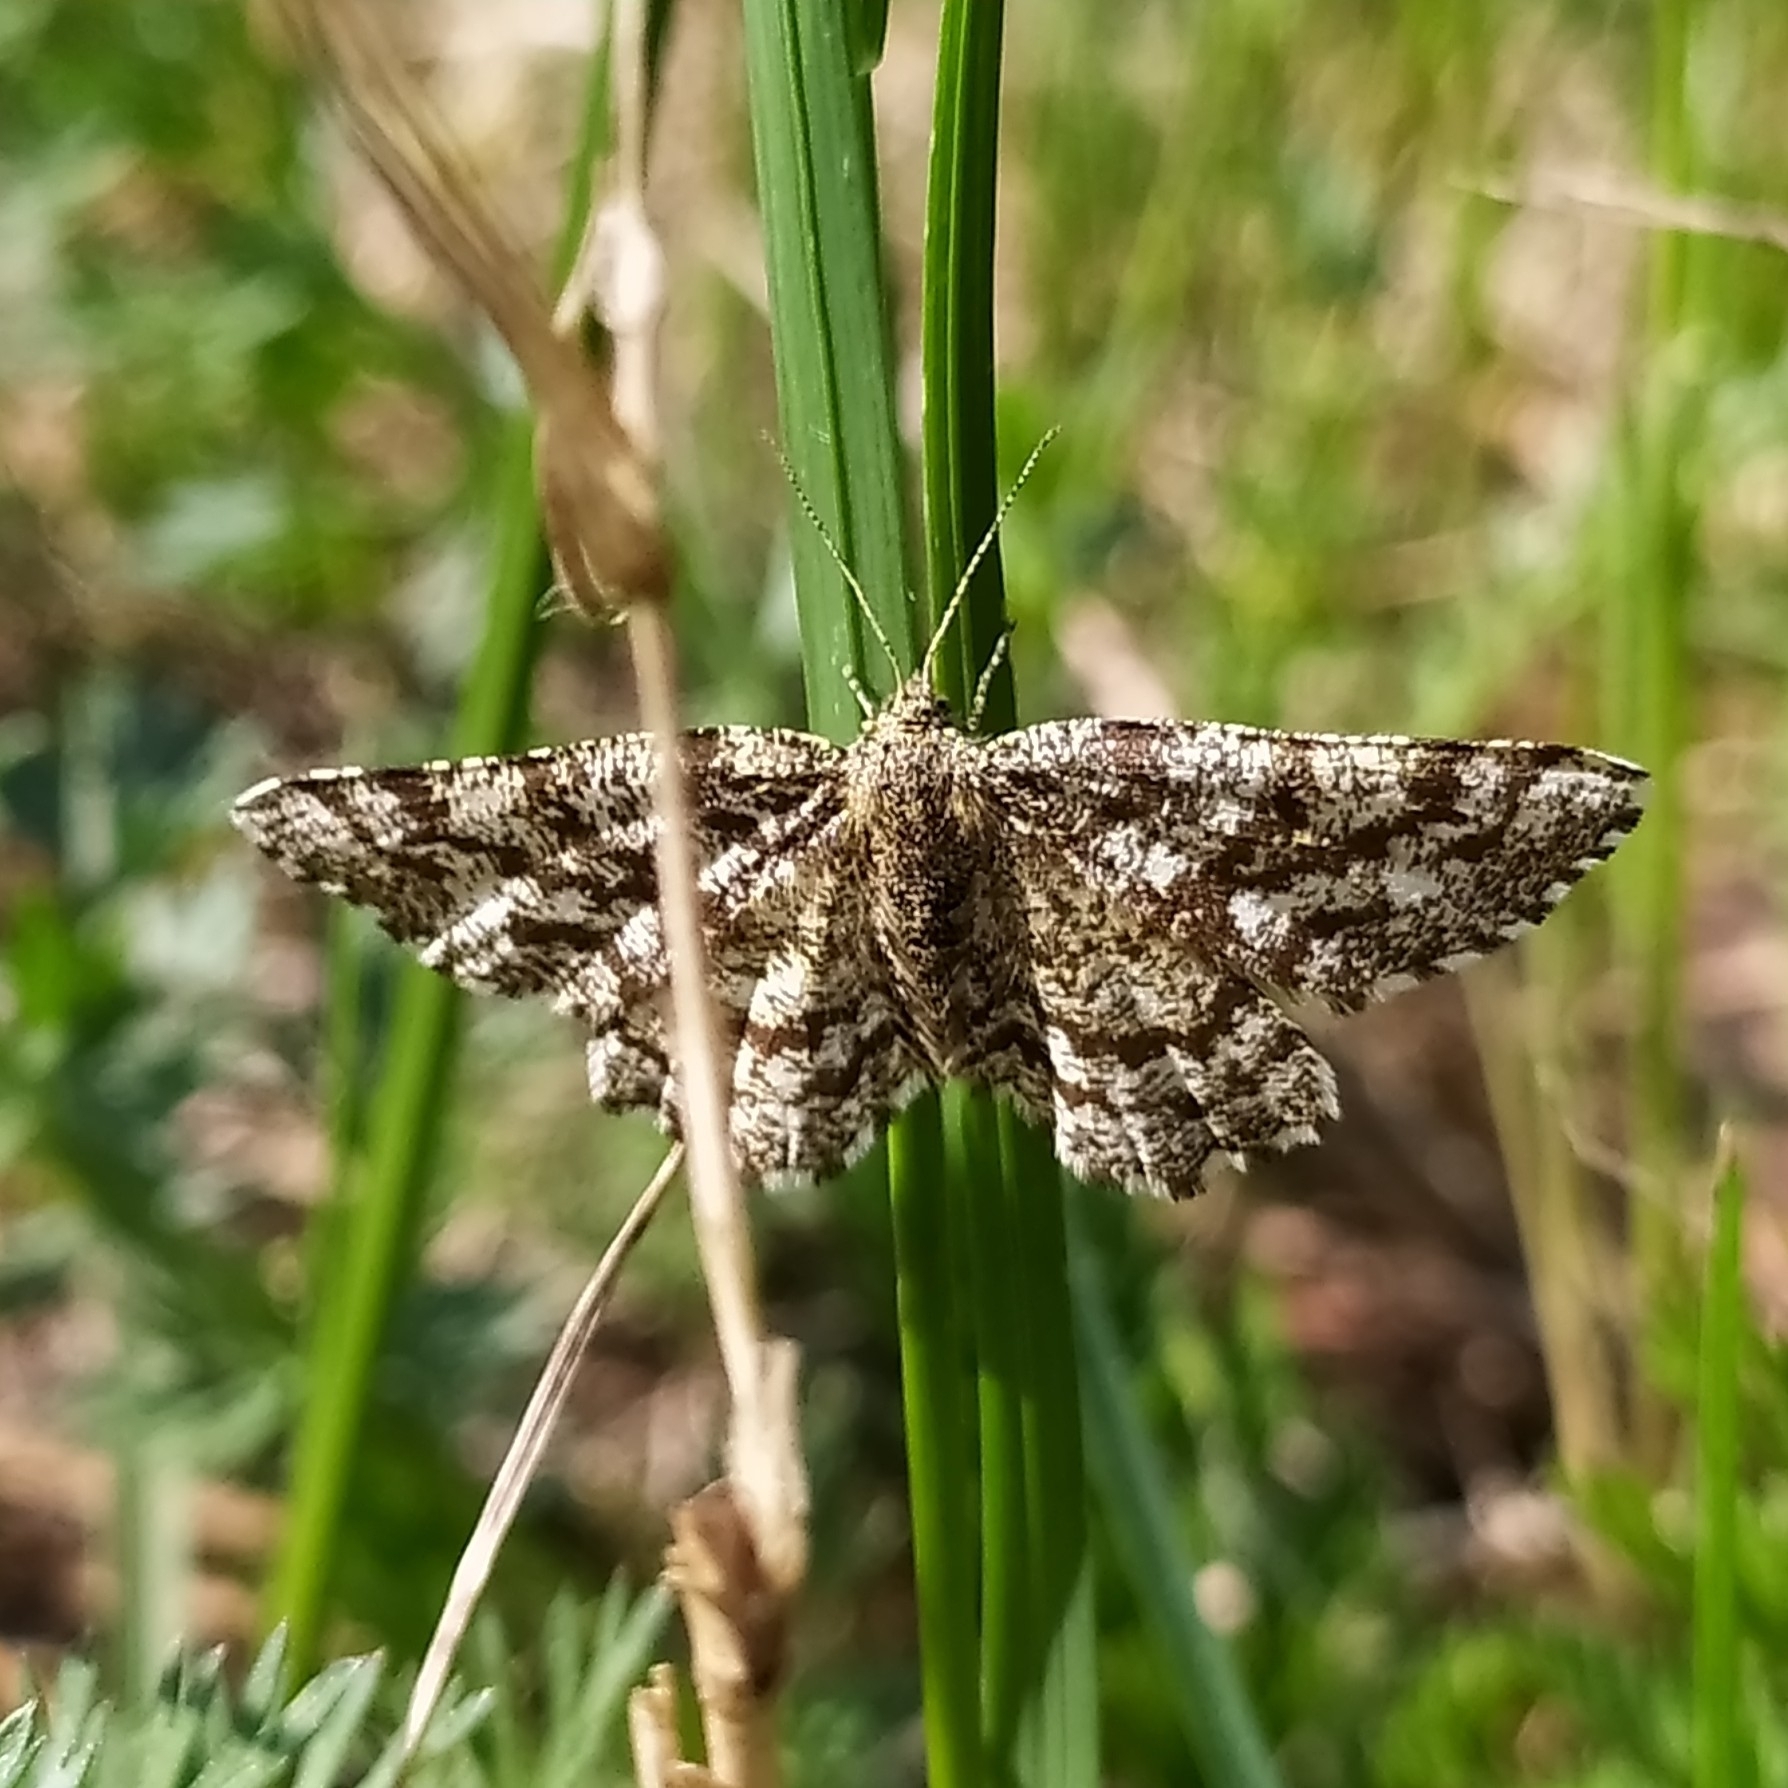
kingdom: Animalia
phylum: Arthropoda
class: Insecta
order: Lepidoptera
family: Geometridae
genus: Ematurga
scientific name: Ematurga atomaria
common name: Common heath
